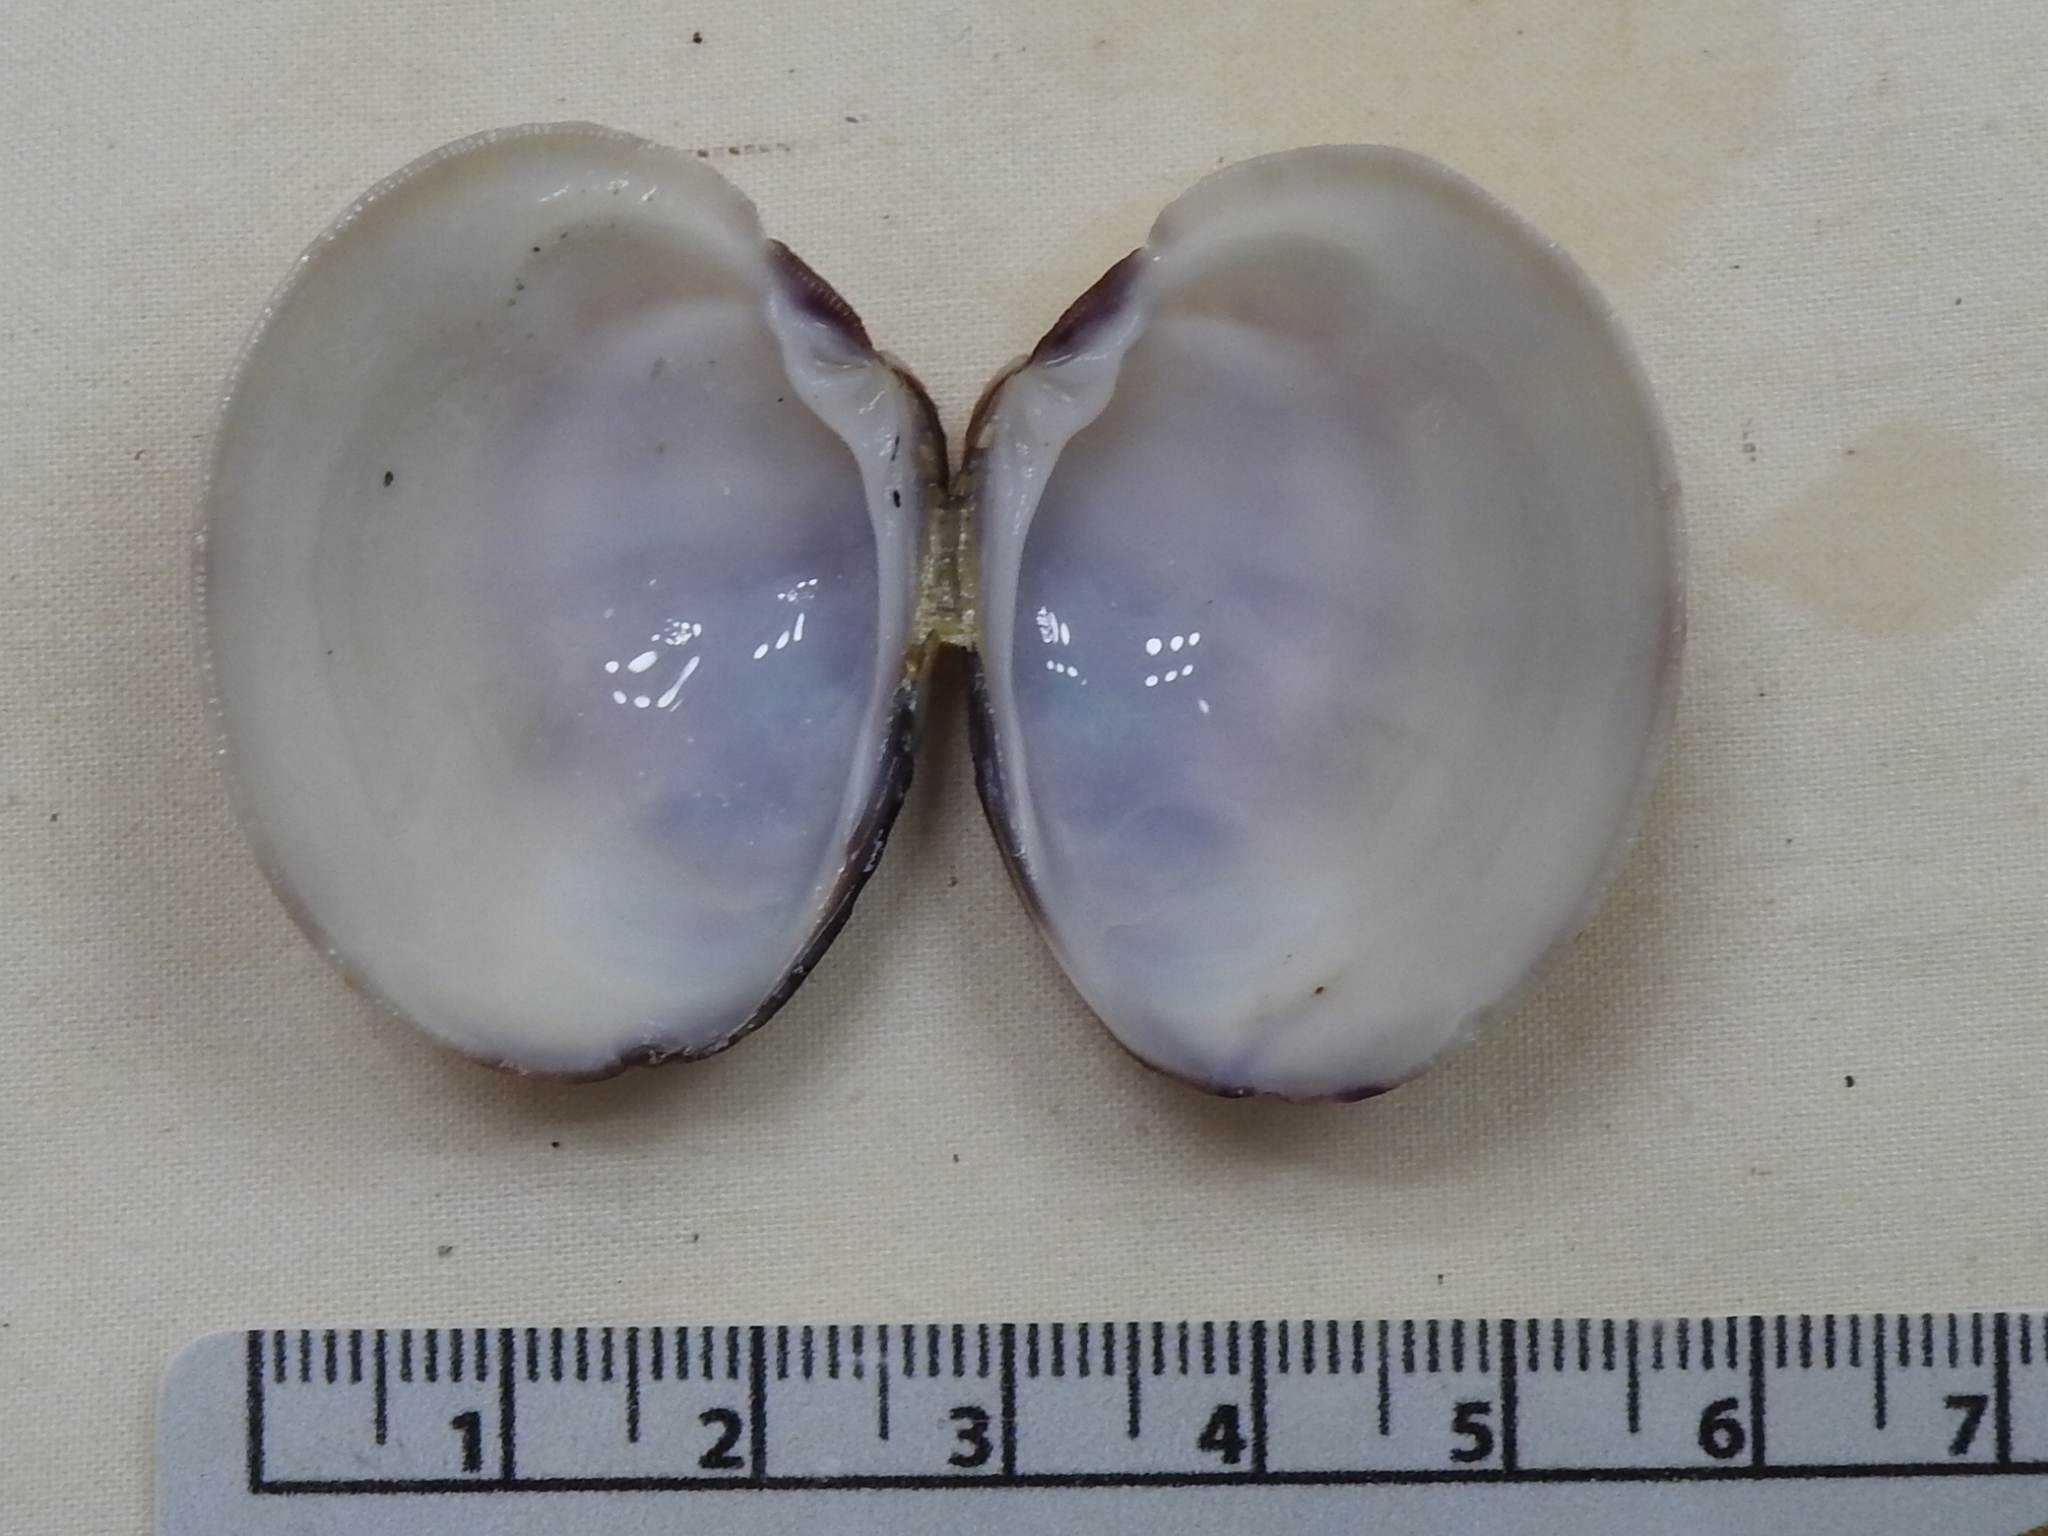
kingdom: Animalia
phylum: Mollusca
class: Bivalvia
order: Venerida
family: Veneridae
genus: Mercenaria
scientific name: Mercenaria campechiensis
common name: Südliche quahog-muschel
